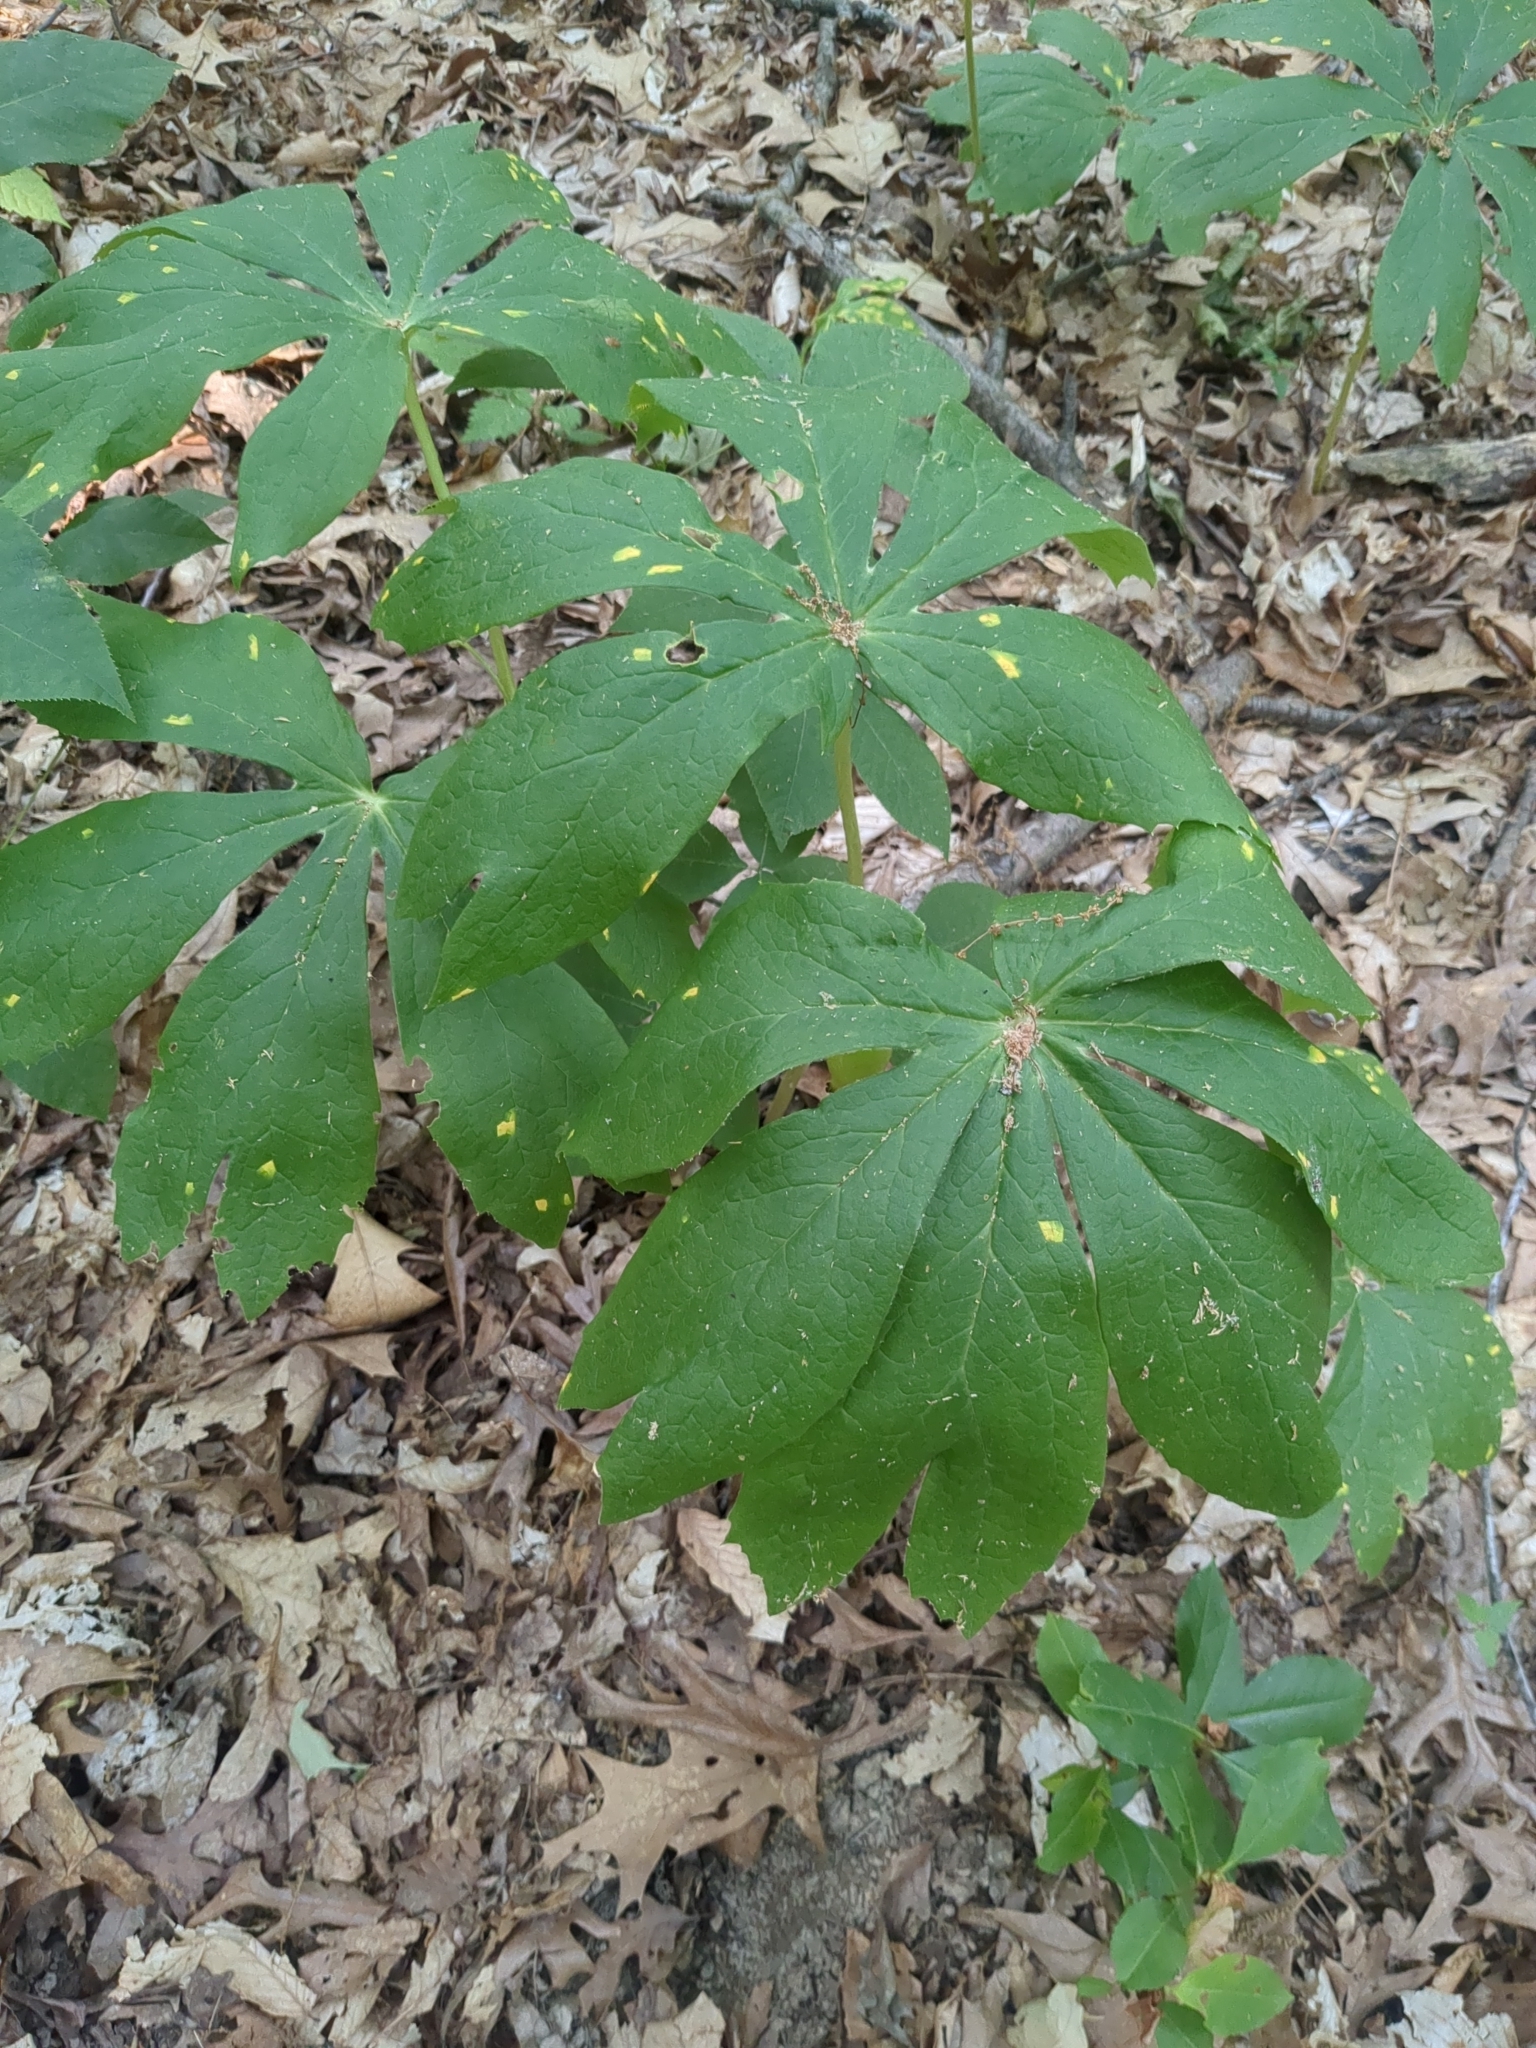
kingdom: Plantae
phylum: Tracheophyta
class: Magnoliopsida
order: Ranunculales
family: Berberidaceae
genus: Podophyllum
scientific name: Podophyllum peltatum
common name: Wild mandrake
